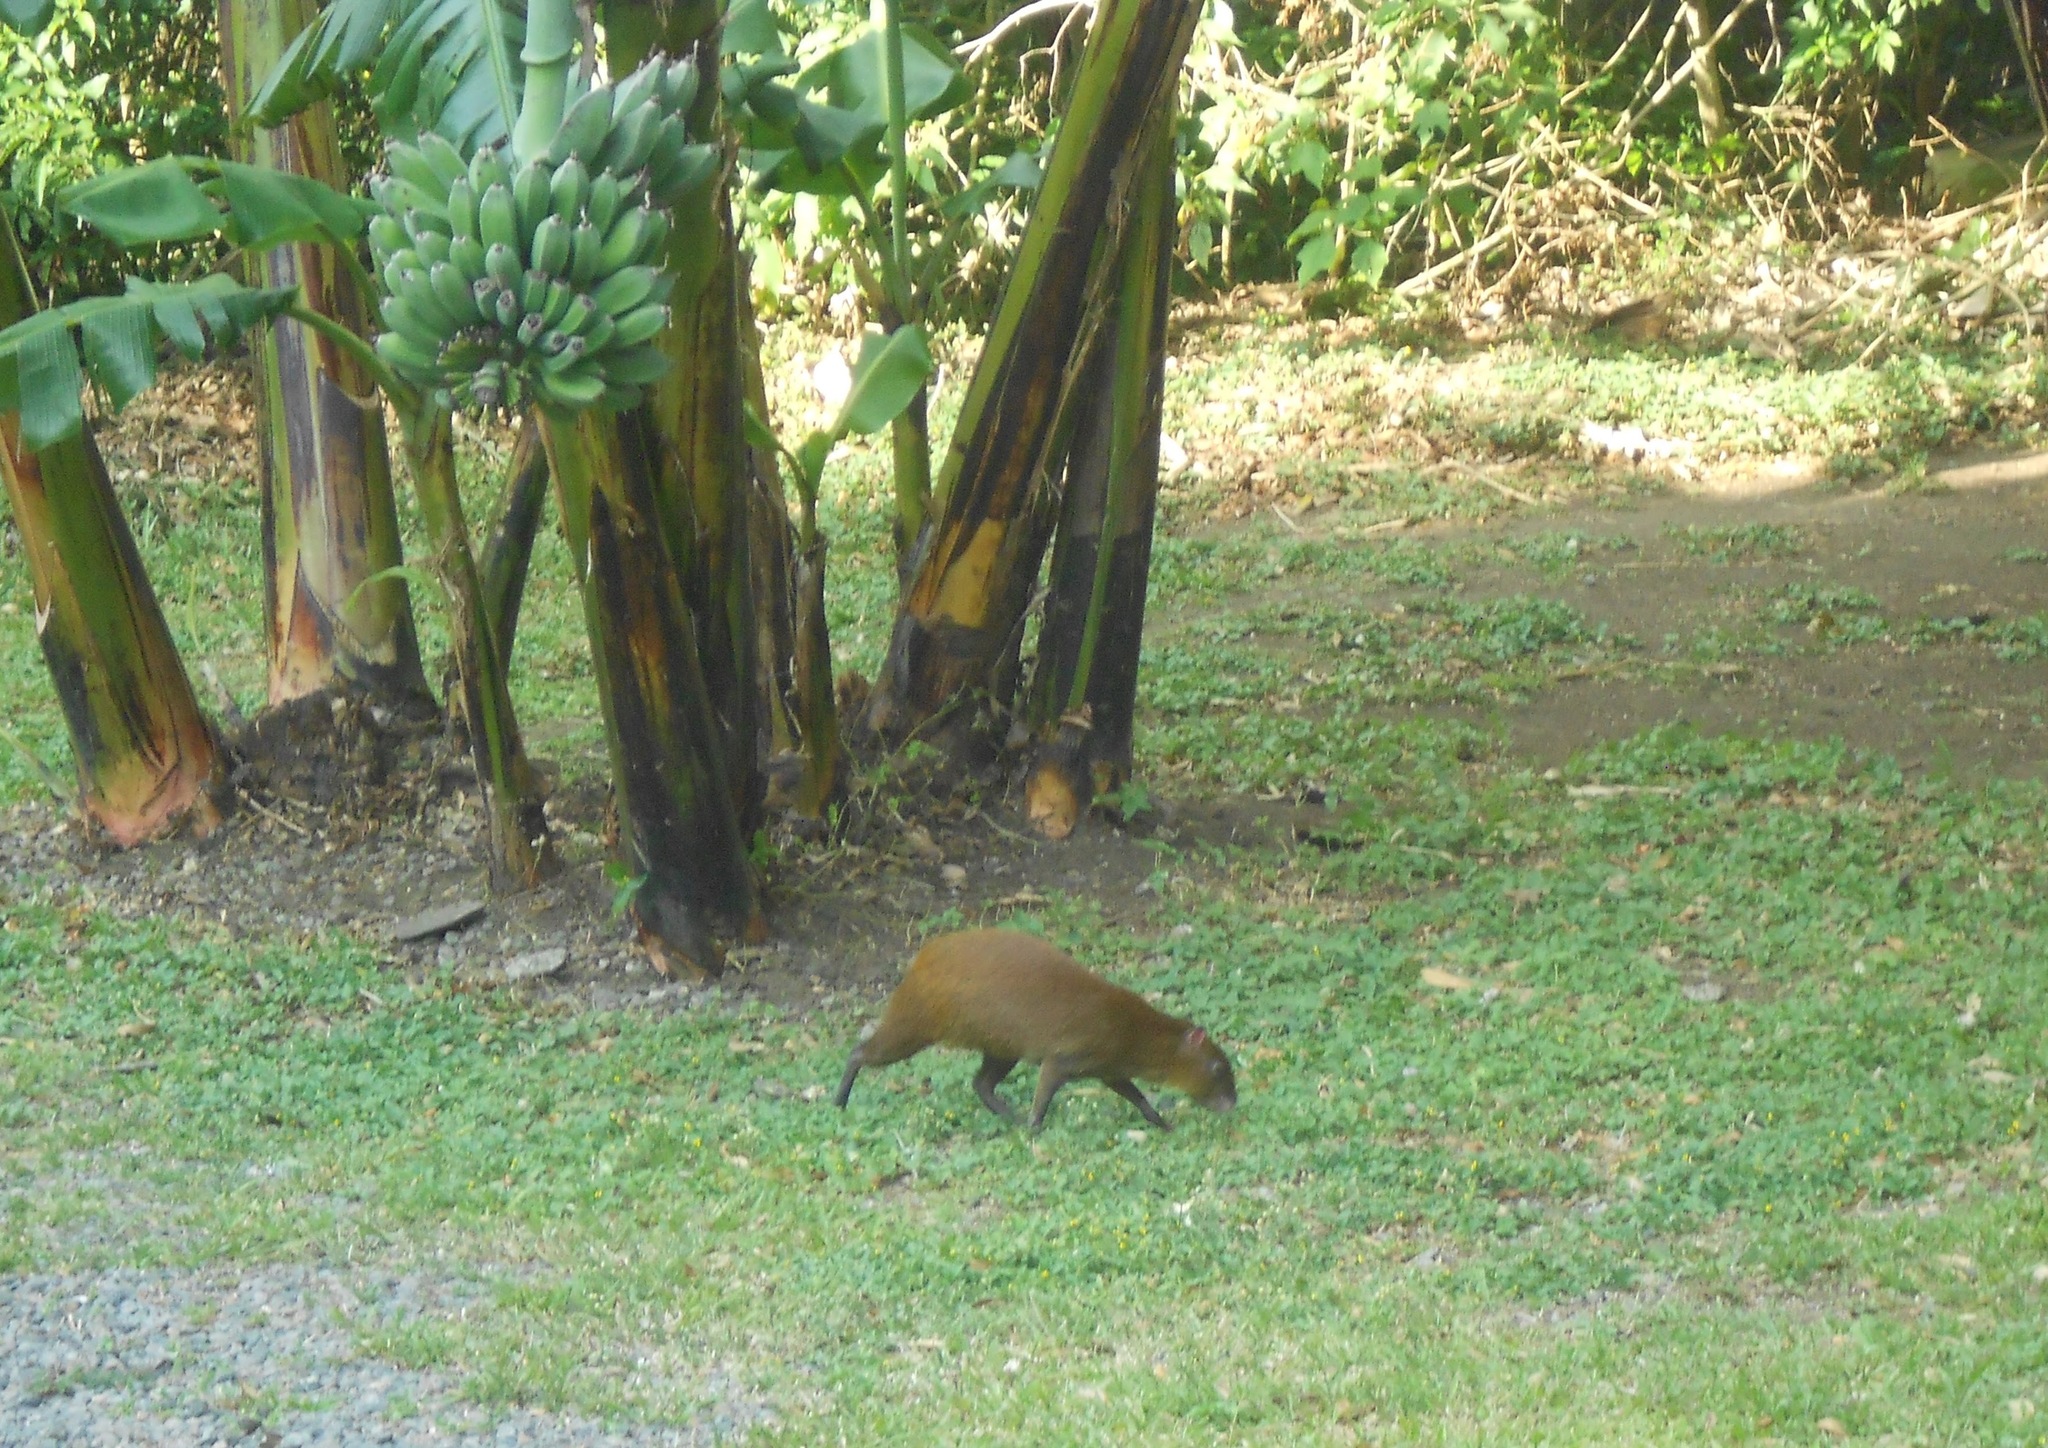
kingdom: Animalia
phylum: Chordata
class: Mammalia
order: Rodentia
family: Dasyproctidae
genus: Dasyprocta
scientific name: Dasyprocta punctata
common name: Central american agouti
